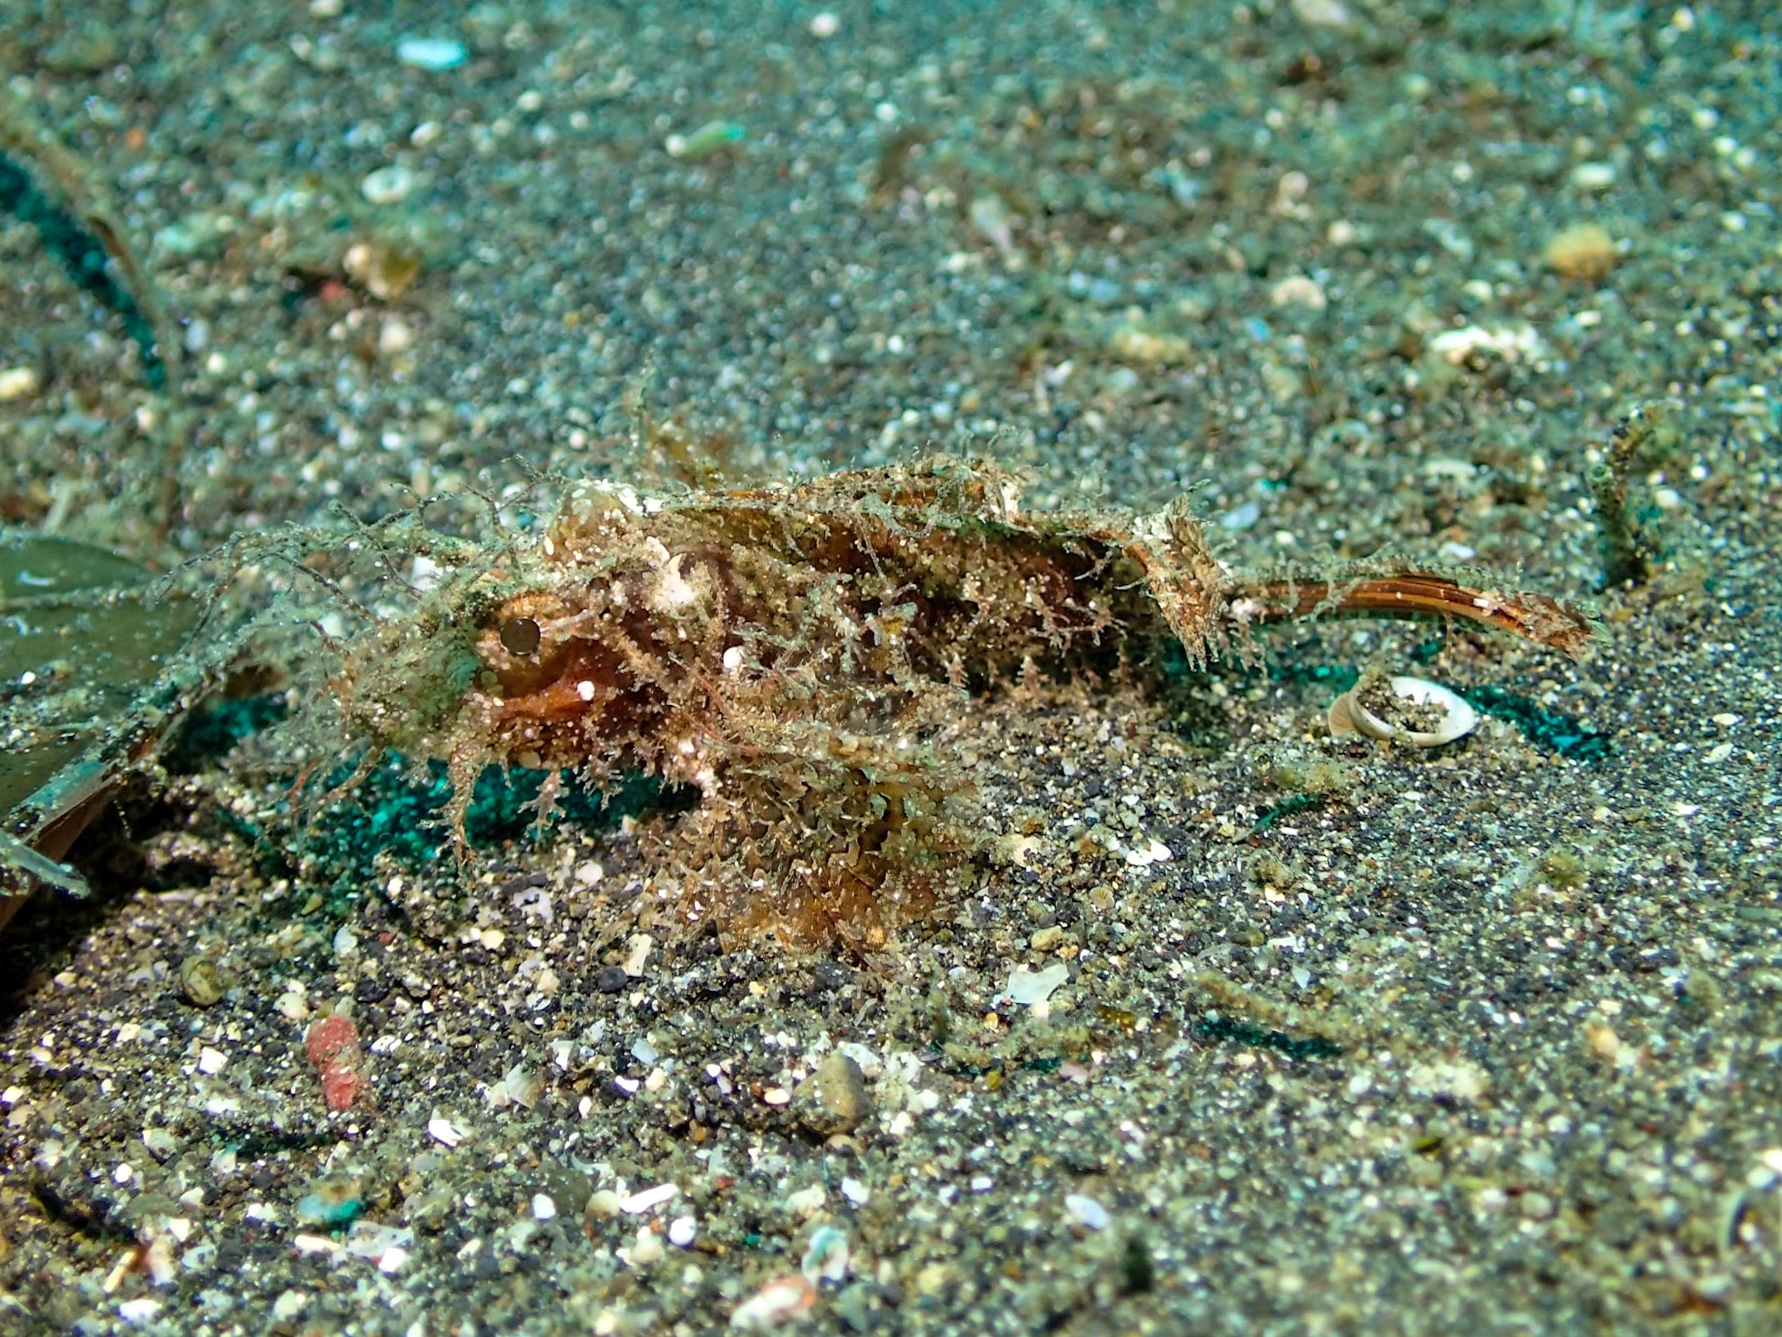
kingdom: Animalia
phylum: Chordata
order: Scorpaeniformes
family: Scorpaenidae
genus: Pteroidichthys
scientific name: Pteroidichthys amboinensis
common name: Ambon scorpionfish
